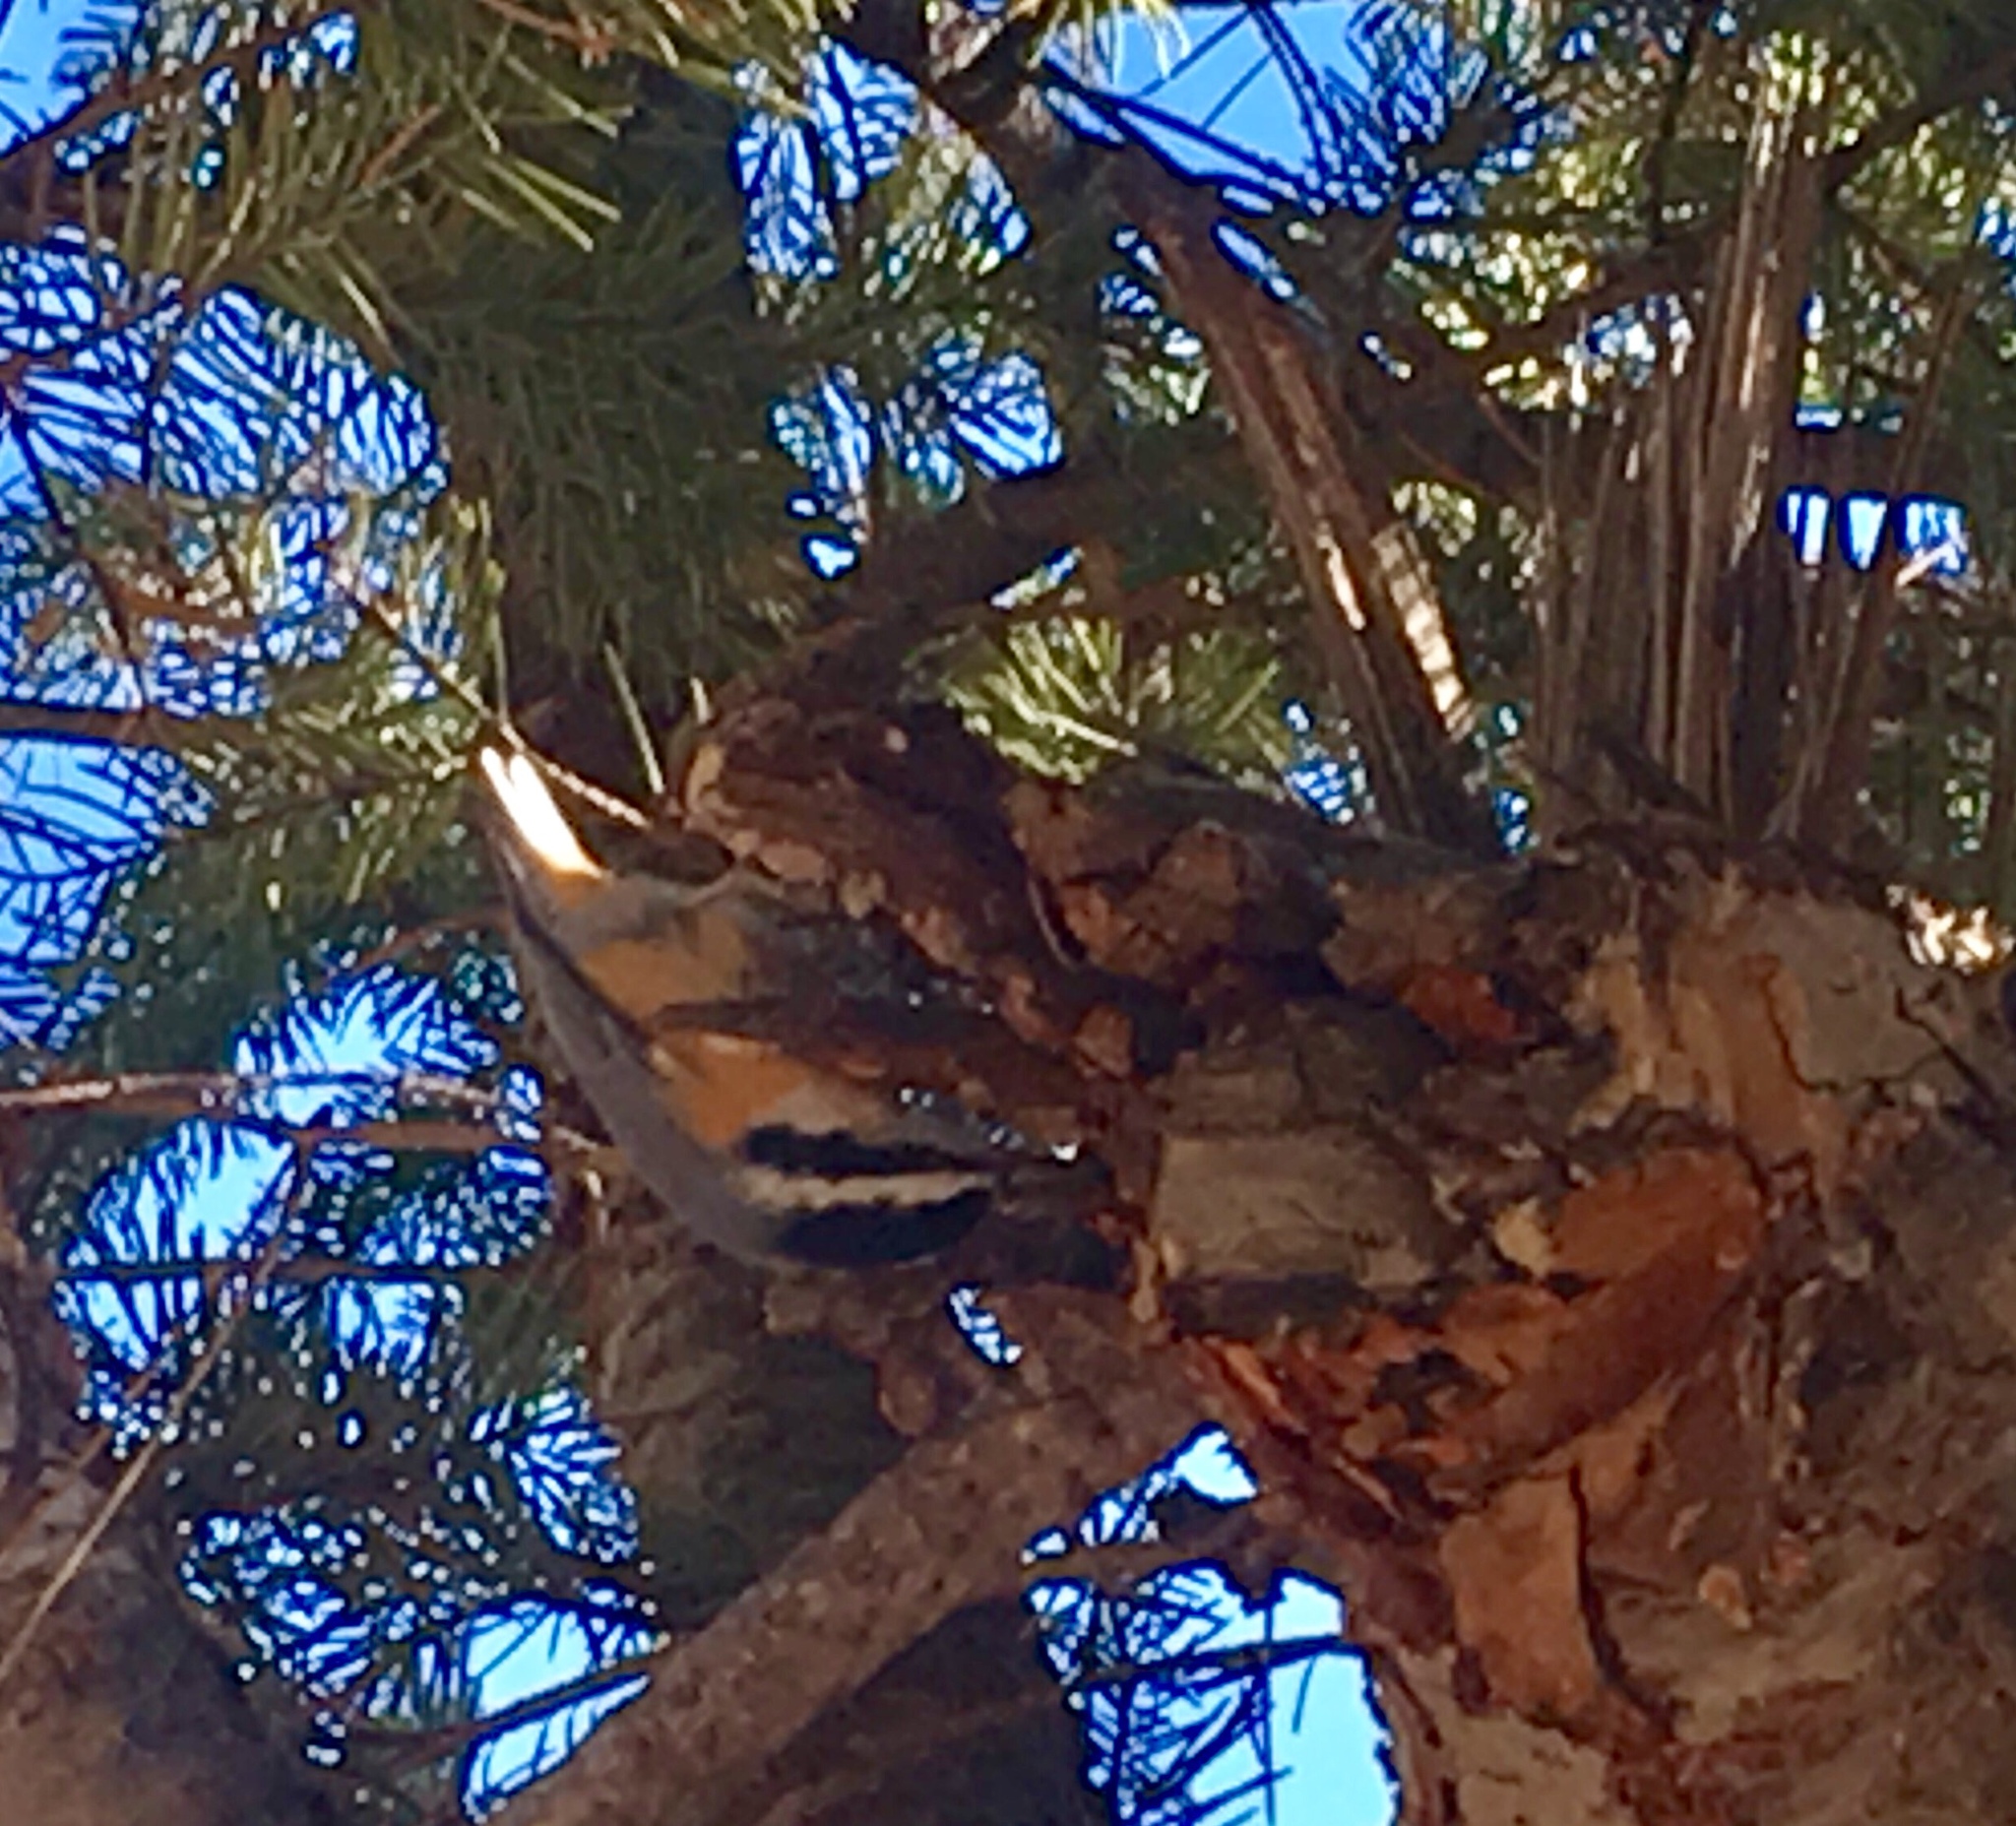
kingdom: Animalia
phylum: Chordata
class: Aves
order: Passeriformes
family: Sittidae
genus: Sitta
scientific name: Sitta canadensis
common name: Red-breasted nuthatch
